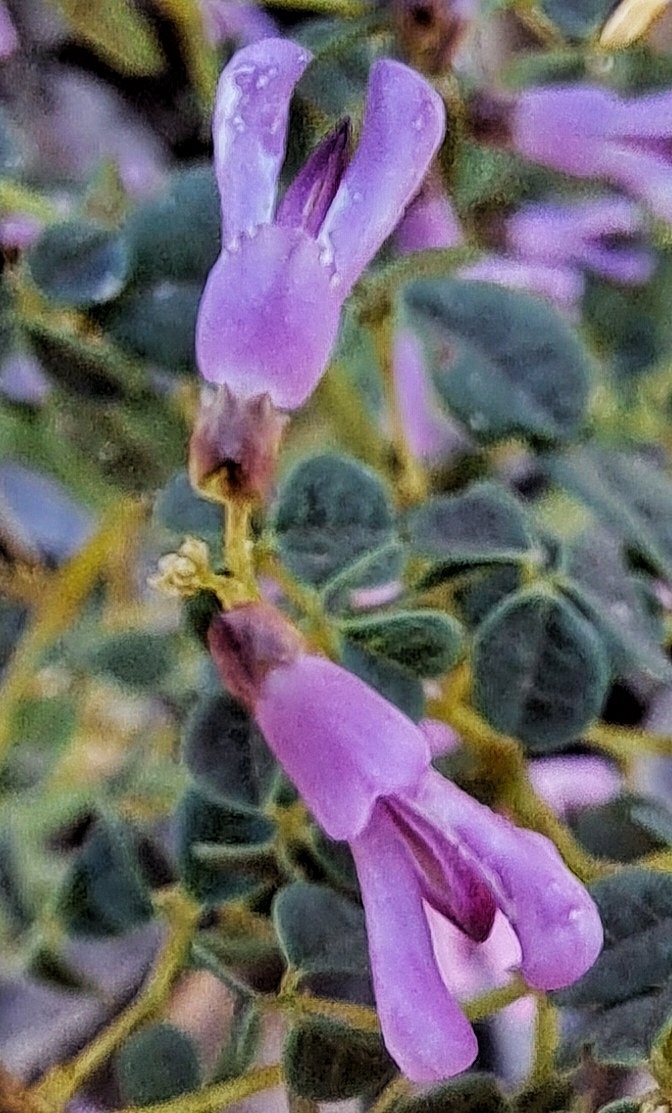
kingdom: Plantae
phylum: Tracheophyta
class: Magnoliopsida
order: Fabales
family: Fabaceae
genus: Hypocalyptus
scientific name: Hypocalyptus oxalidifolius
